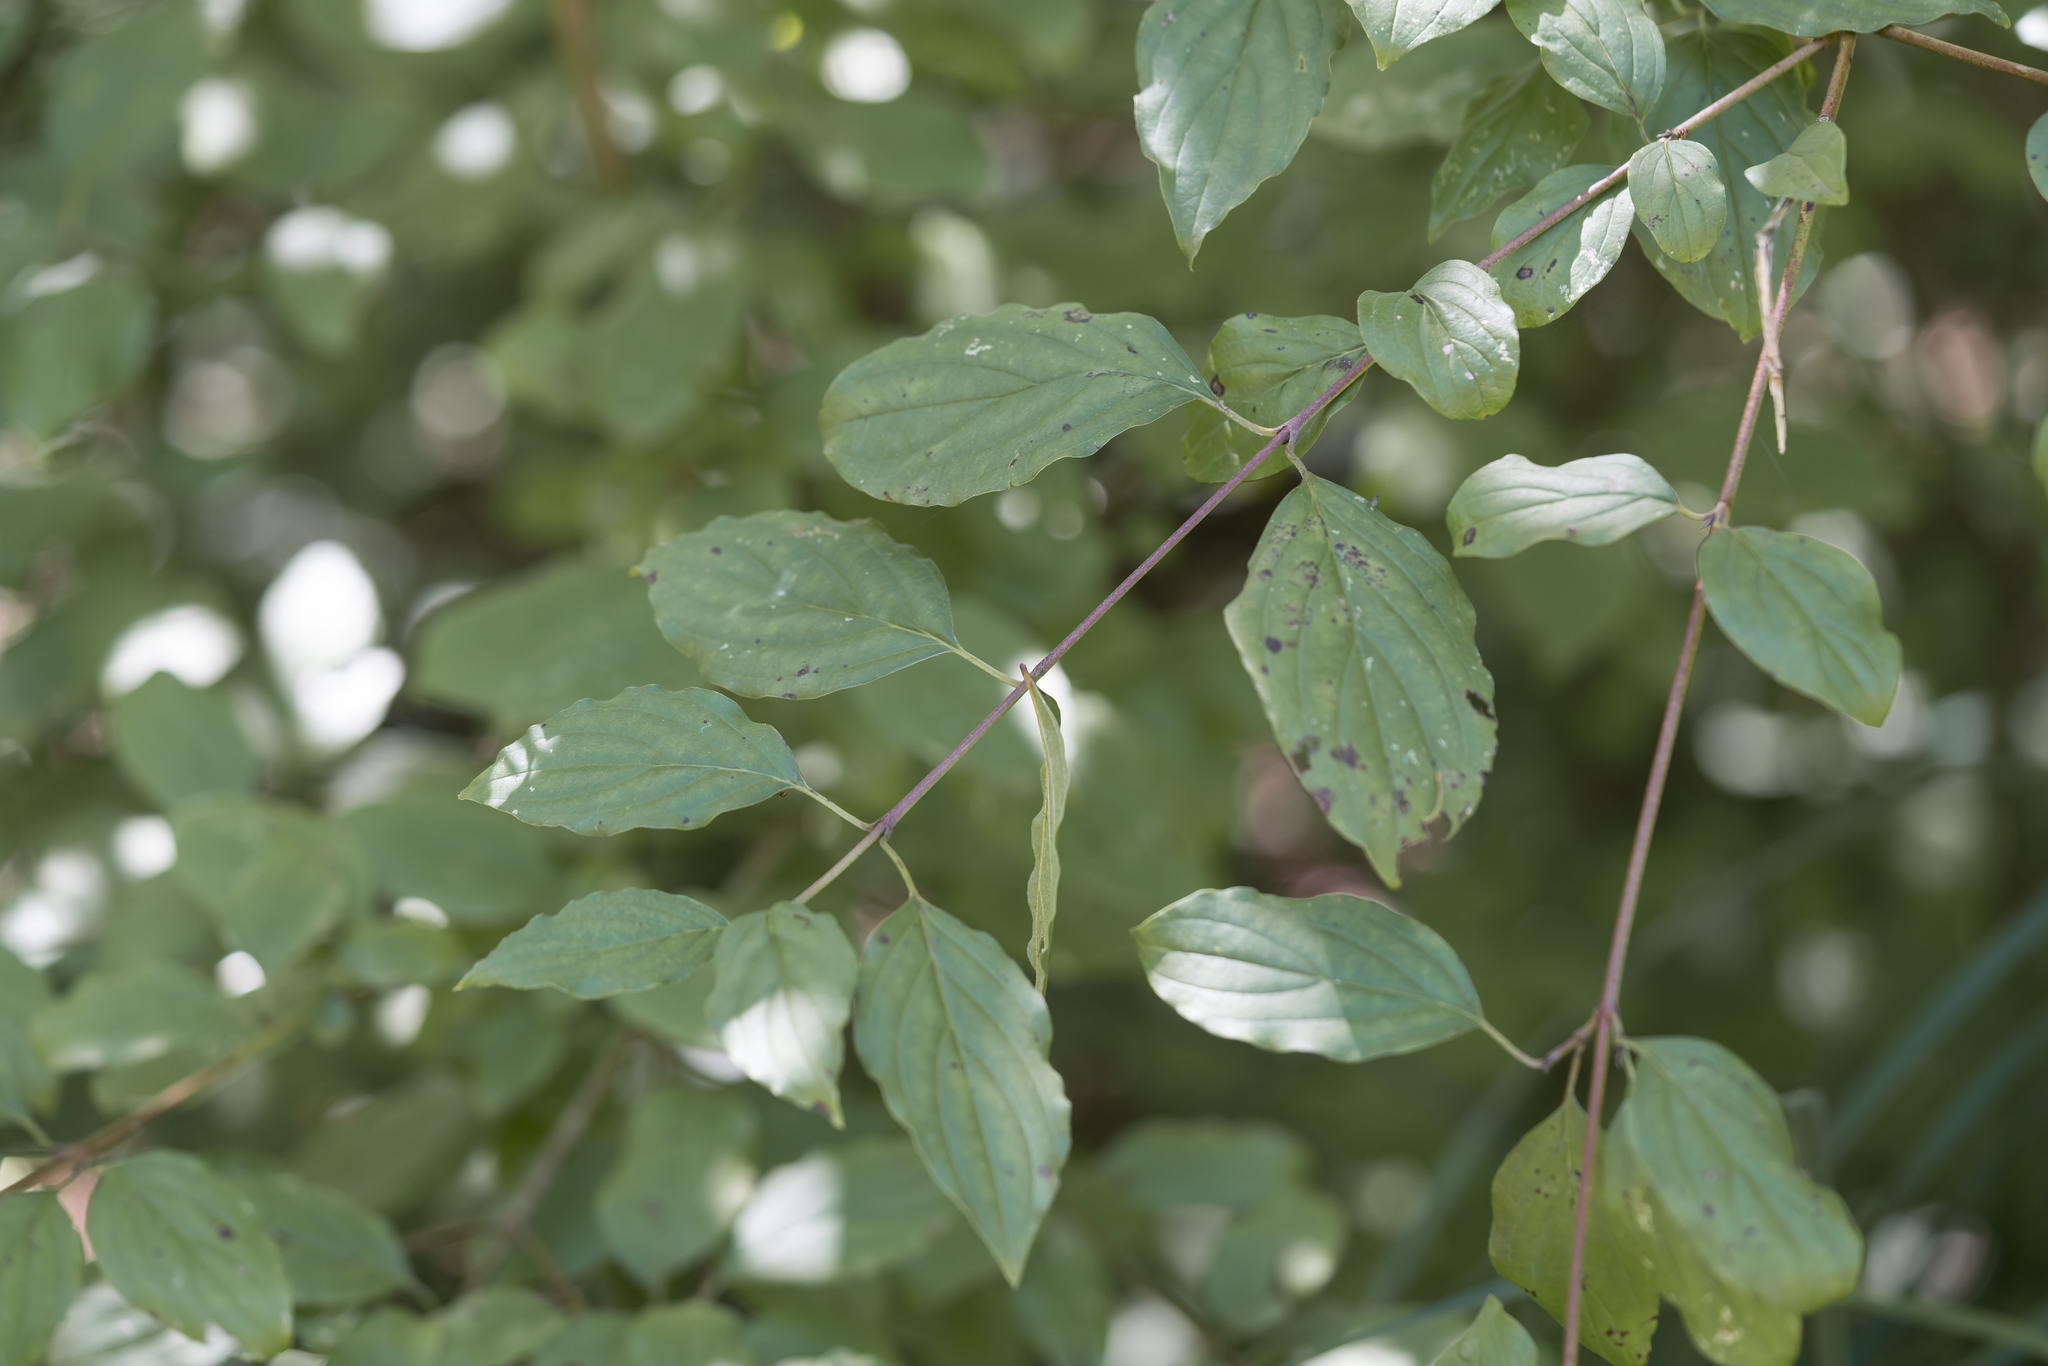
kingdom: Plantae
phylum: Tracheophyta
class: Magnoliopsida
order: Cornales
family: Cornaceae
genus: Cornus
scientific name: Cornus sanguinea
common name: Dogwood
